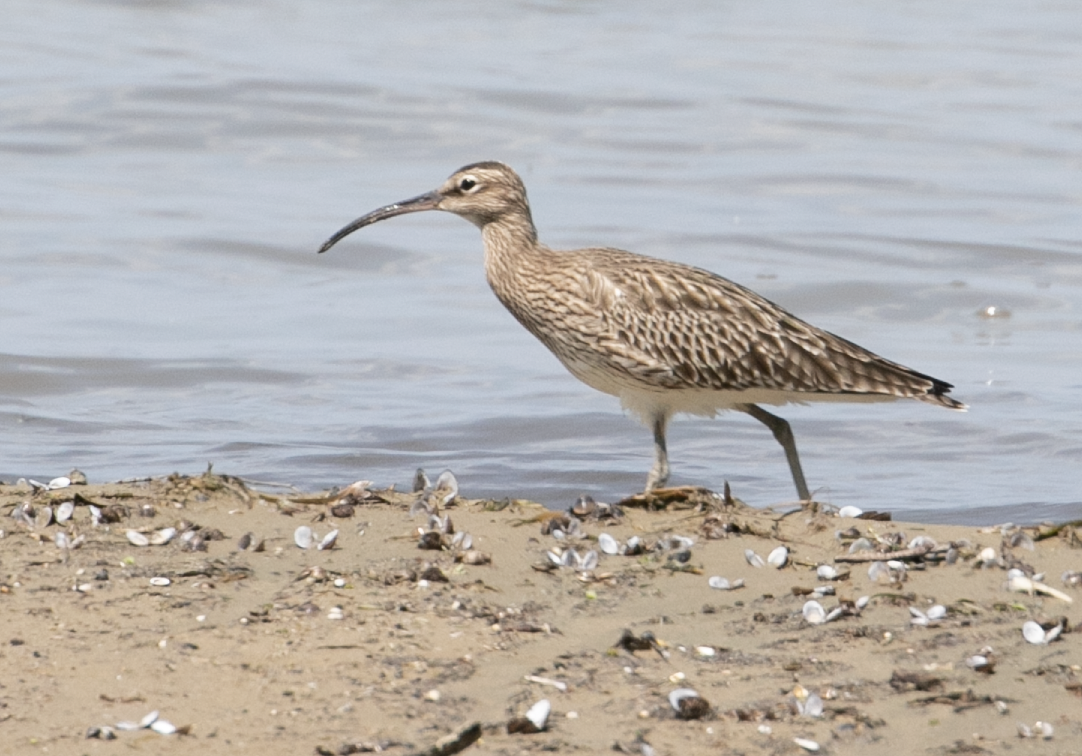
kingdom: Animalia
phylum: Chordata
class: Aves
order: Charadriiformes
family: Scolopacidae
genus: Numenius
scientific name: Numenius phaeopus
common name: Whimbrel
